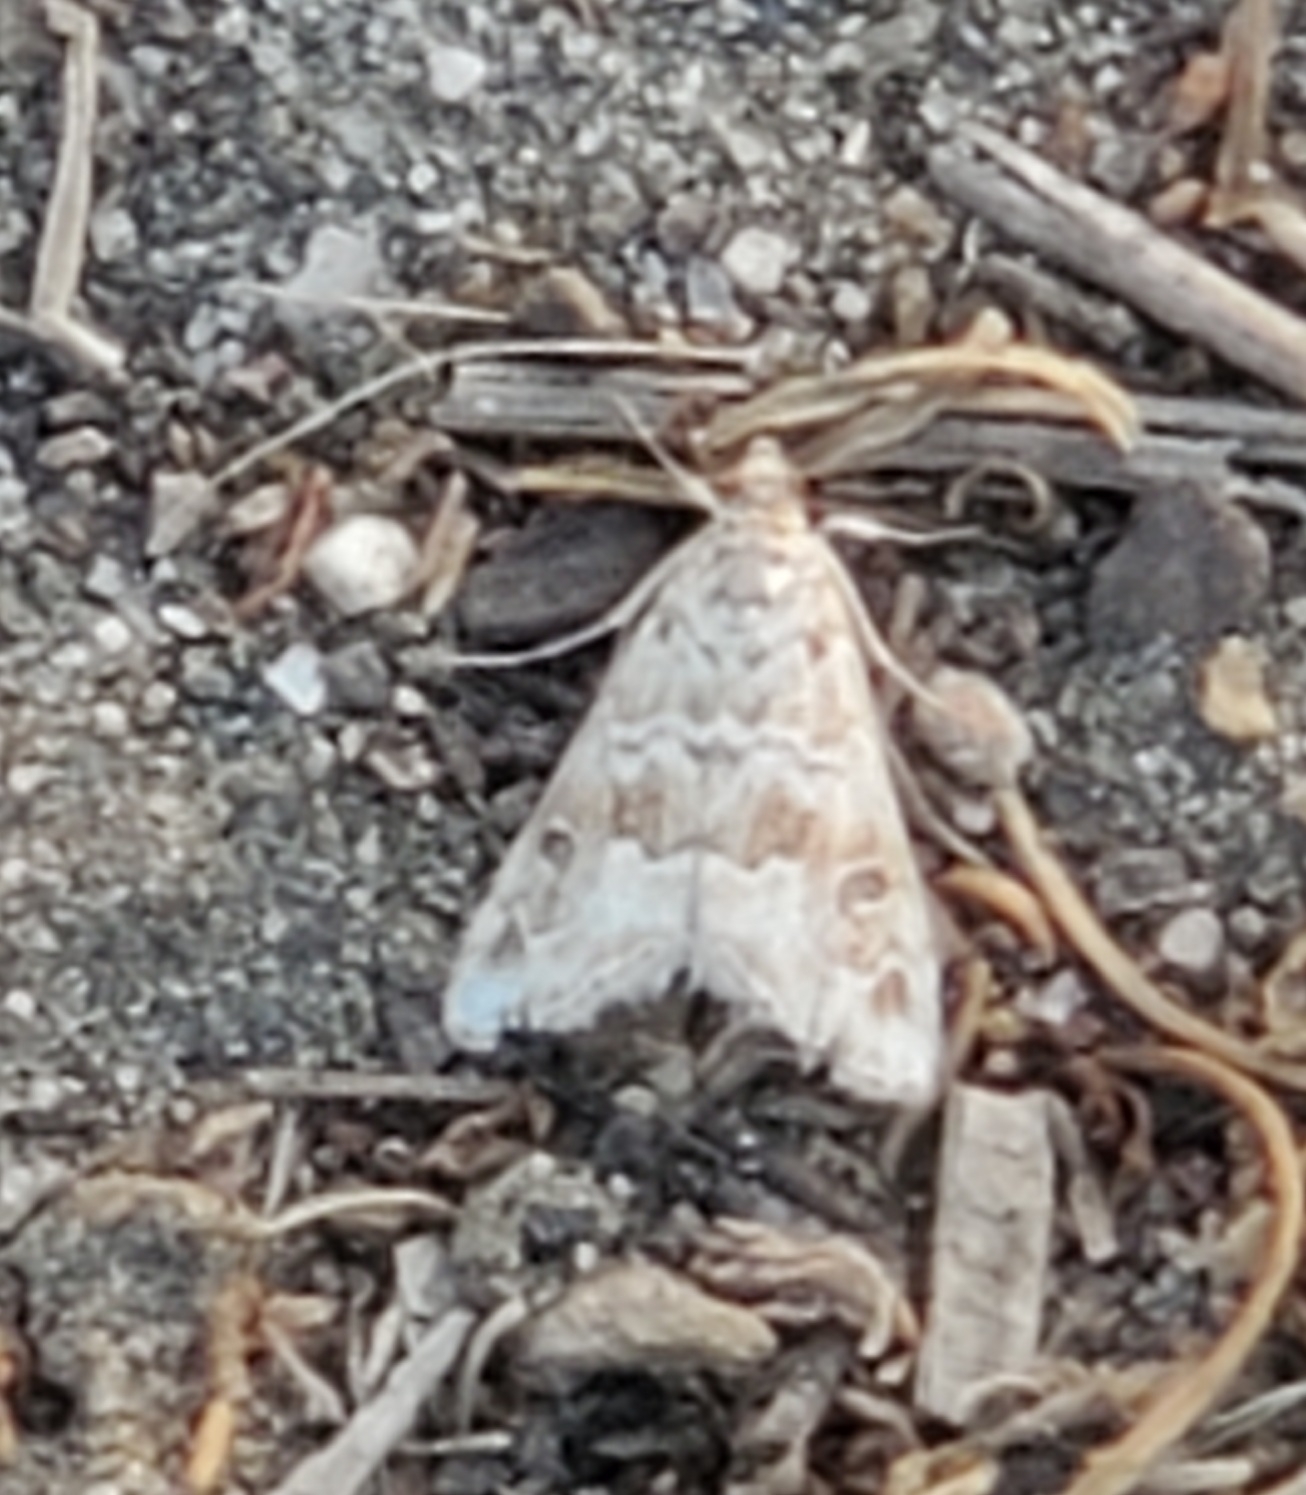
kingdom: Animalia
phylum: Arthropoda
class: Insecta
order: Lepidoptera
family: Crambidae
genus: Hellula
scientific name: Hellula rogatalis
